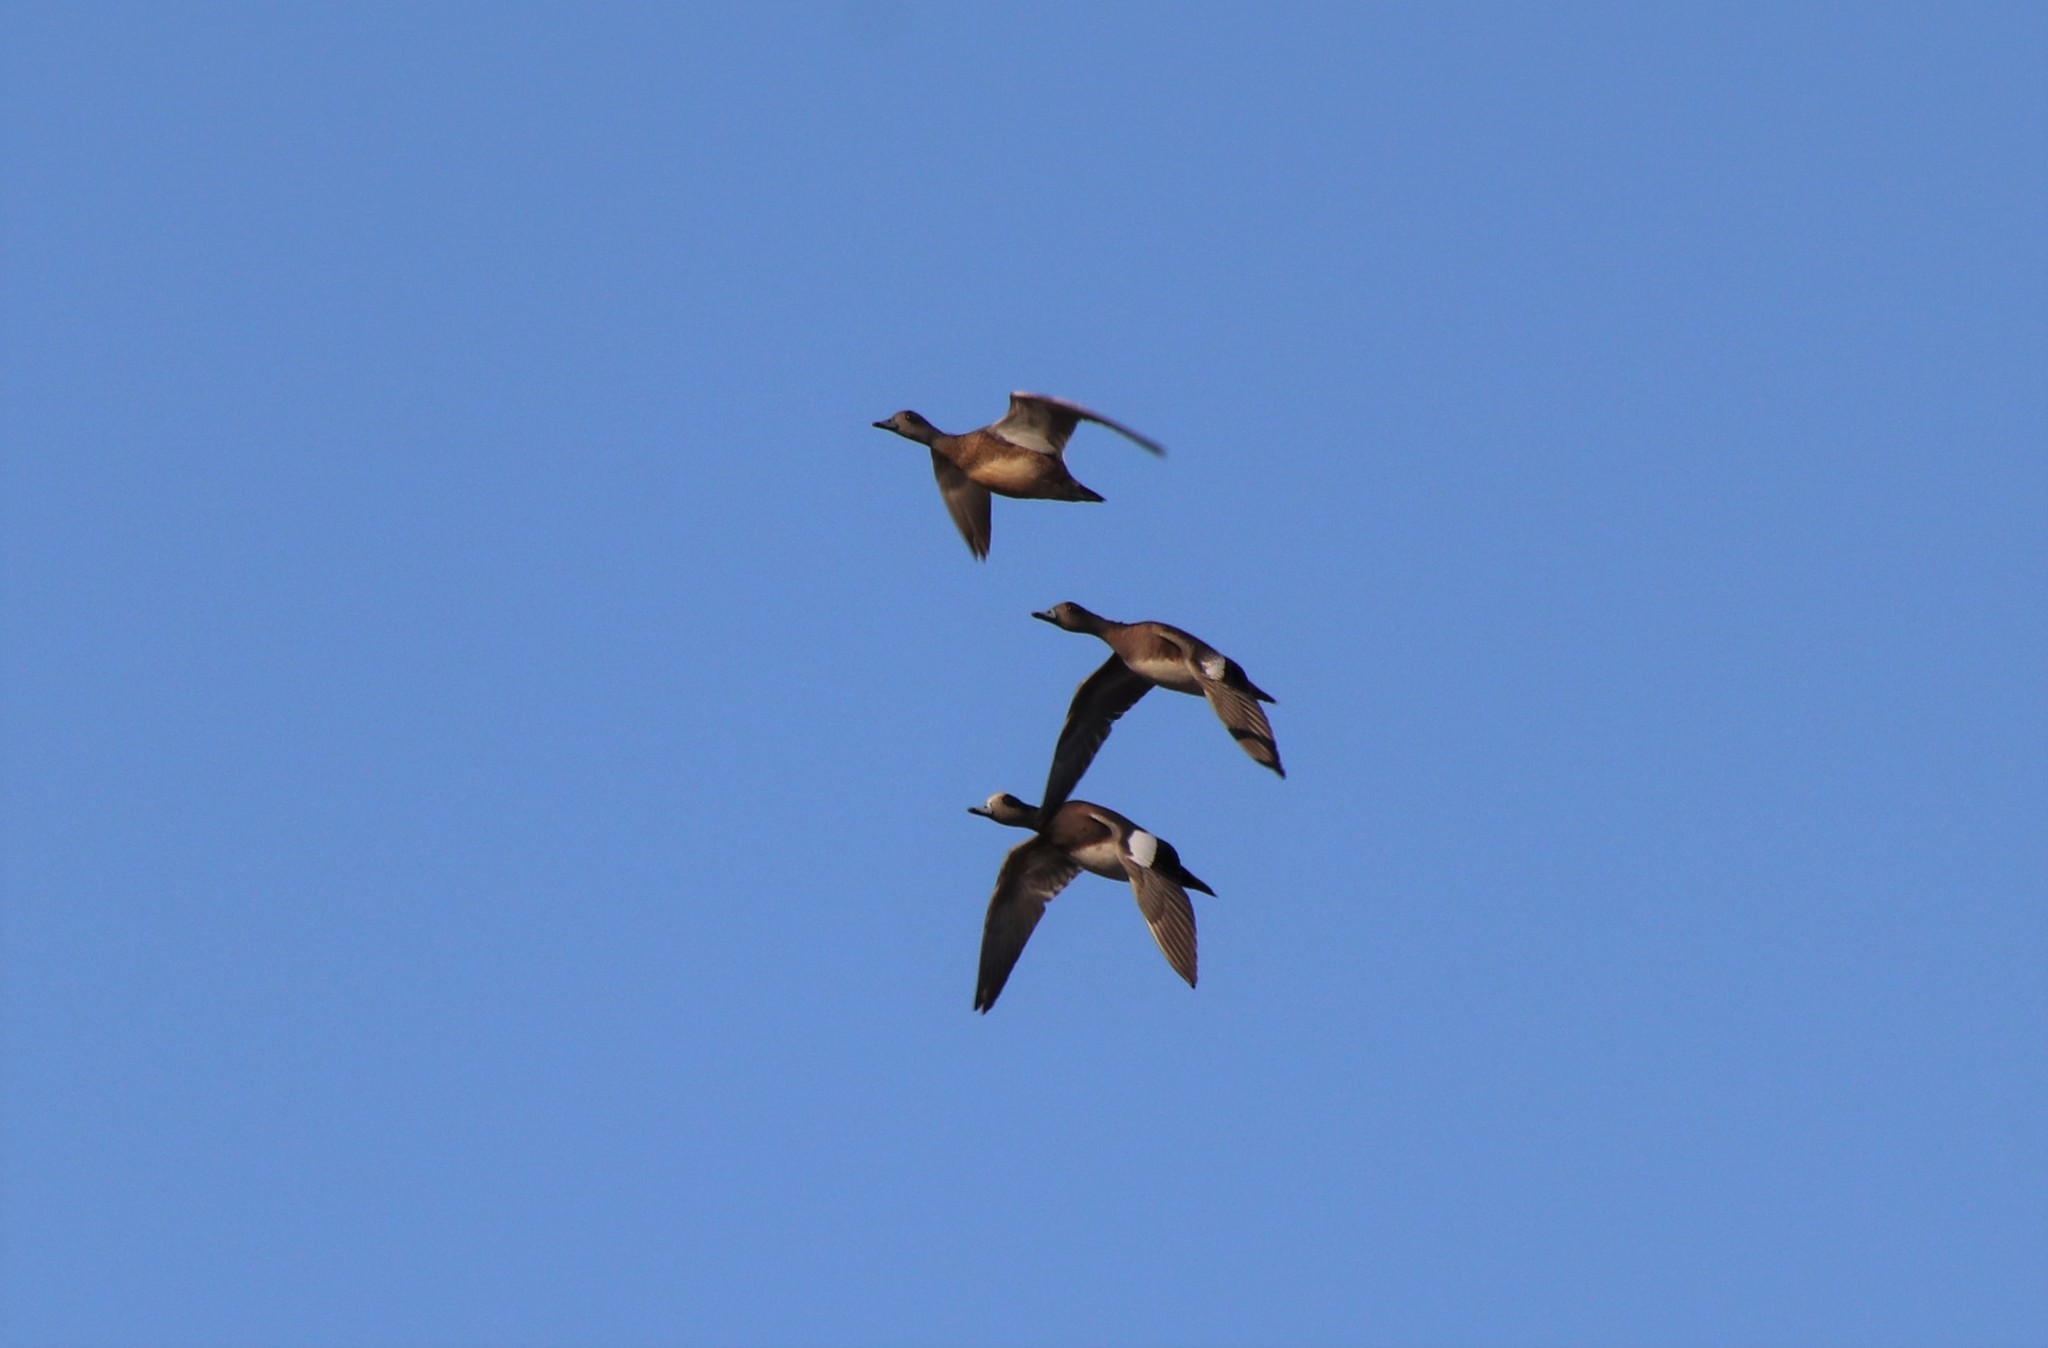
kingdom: Animalia
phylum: Chordata
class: Aves
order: Anseriformes
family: Anatidae
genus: Mareca
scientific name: Mareca americana
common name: American wigeon
